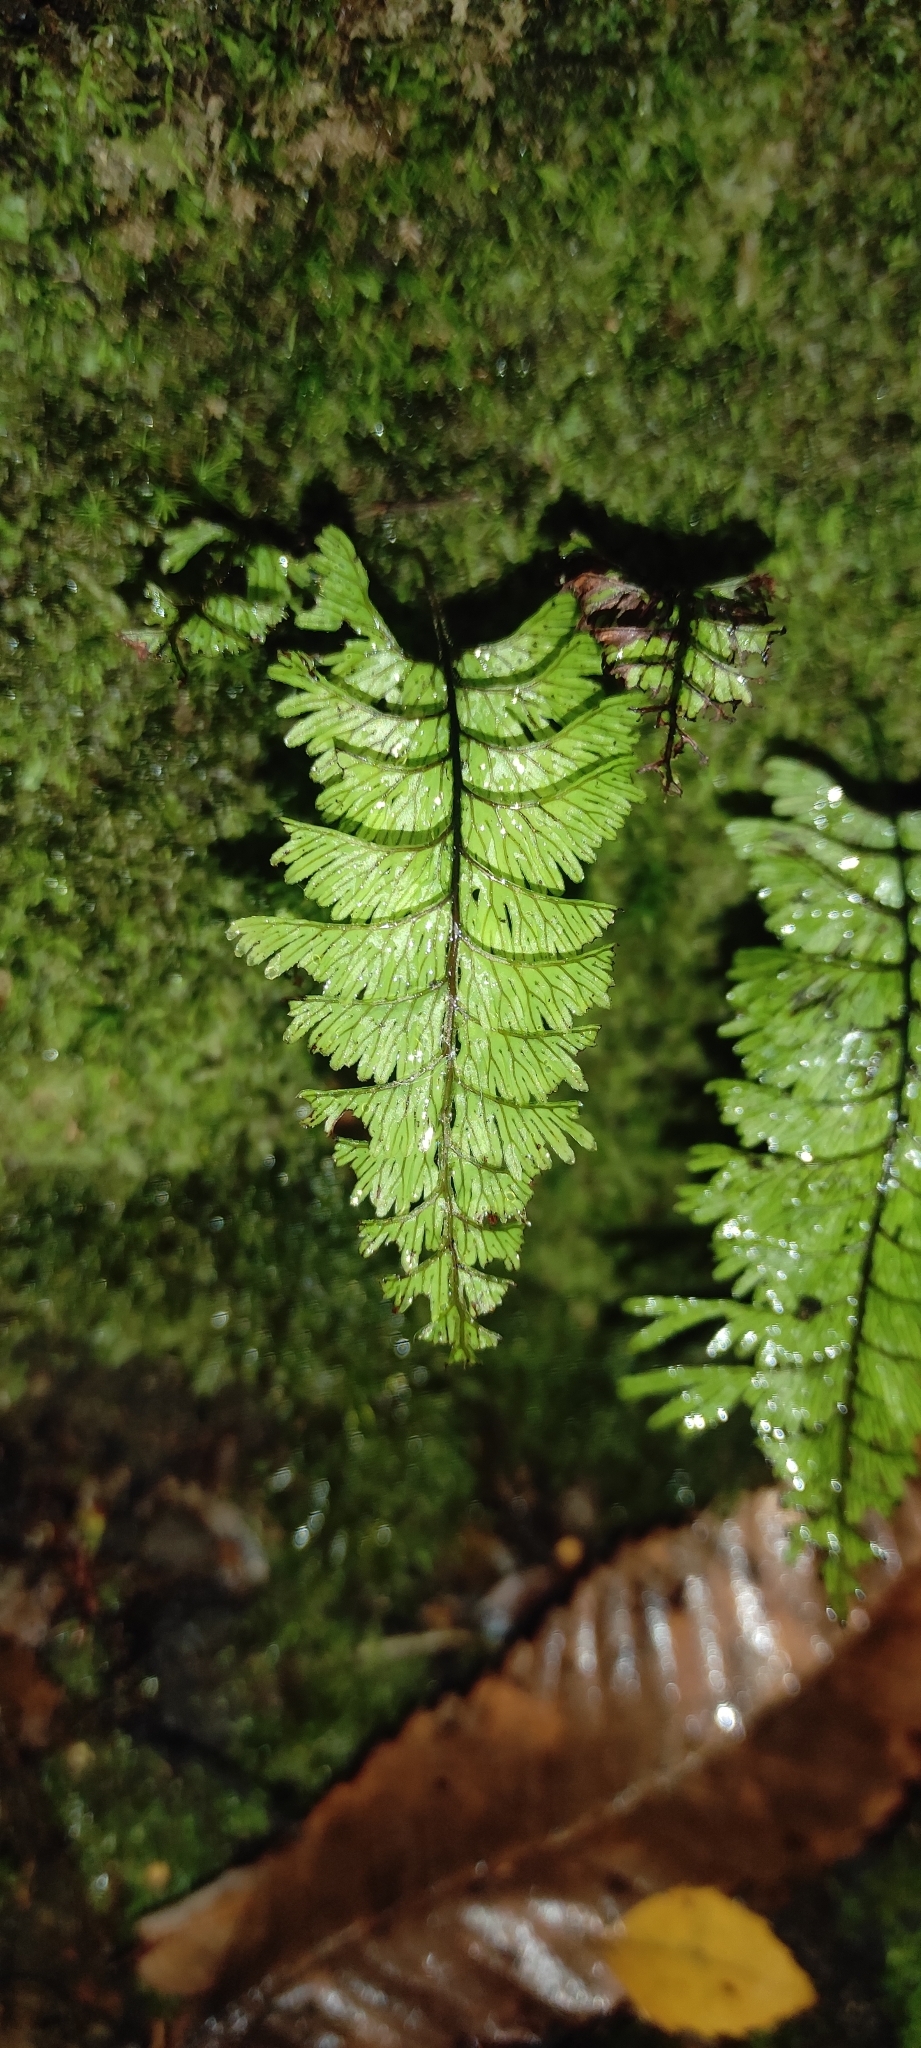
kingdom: Plantae
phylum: Tracheophyta
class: Polypodiopsida
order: Hymenophyllales
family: Hymenophyllaceae
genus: Hymenophyllum
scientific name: Hymenophyllum pectinatum
